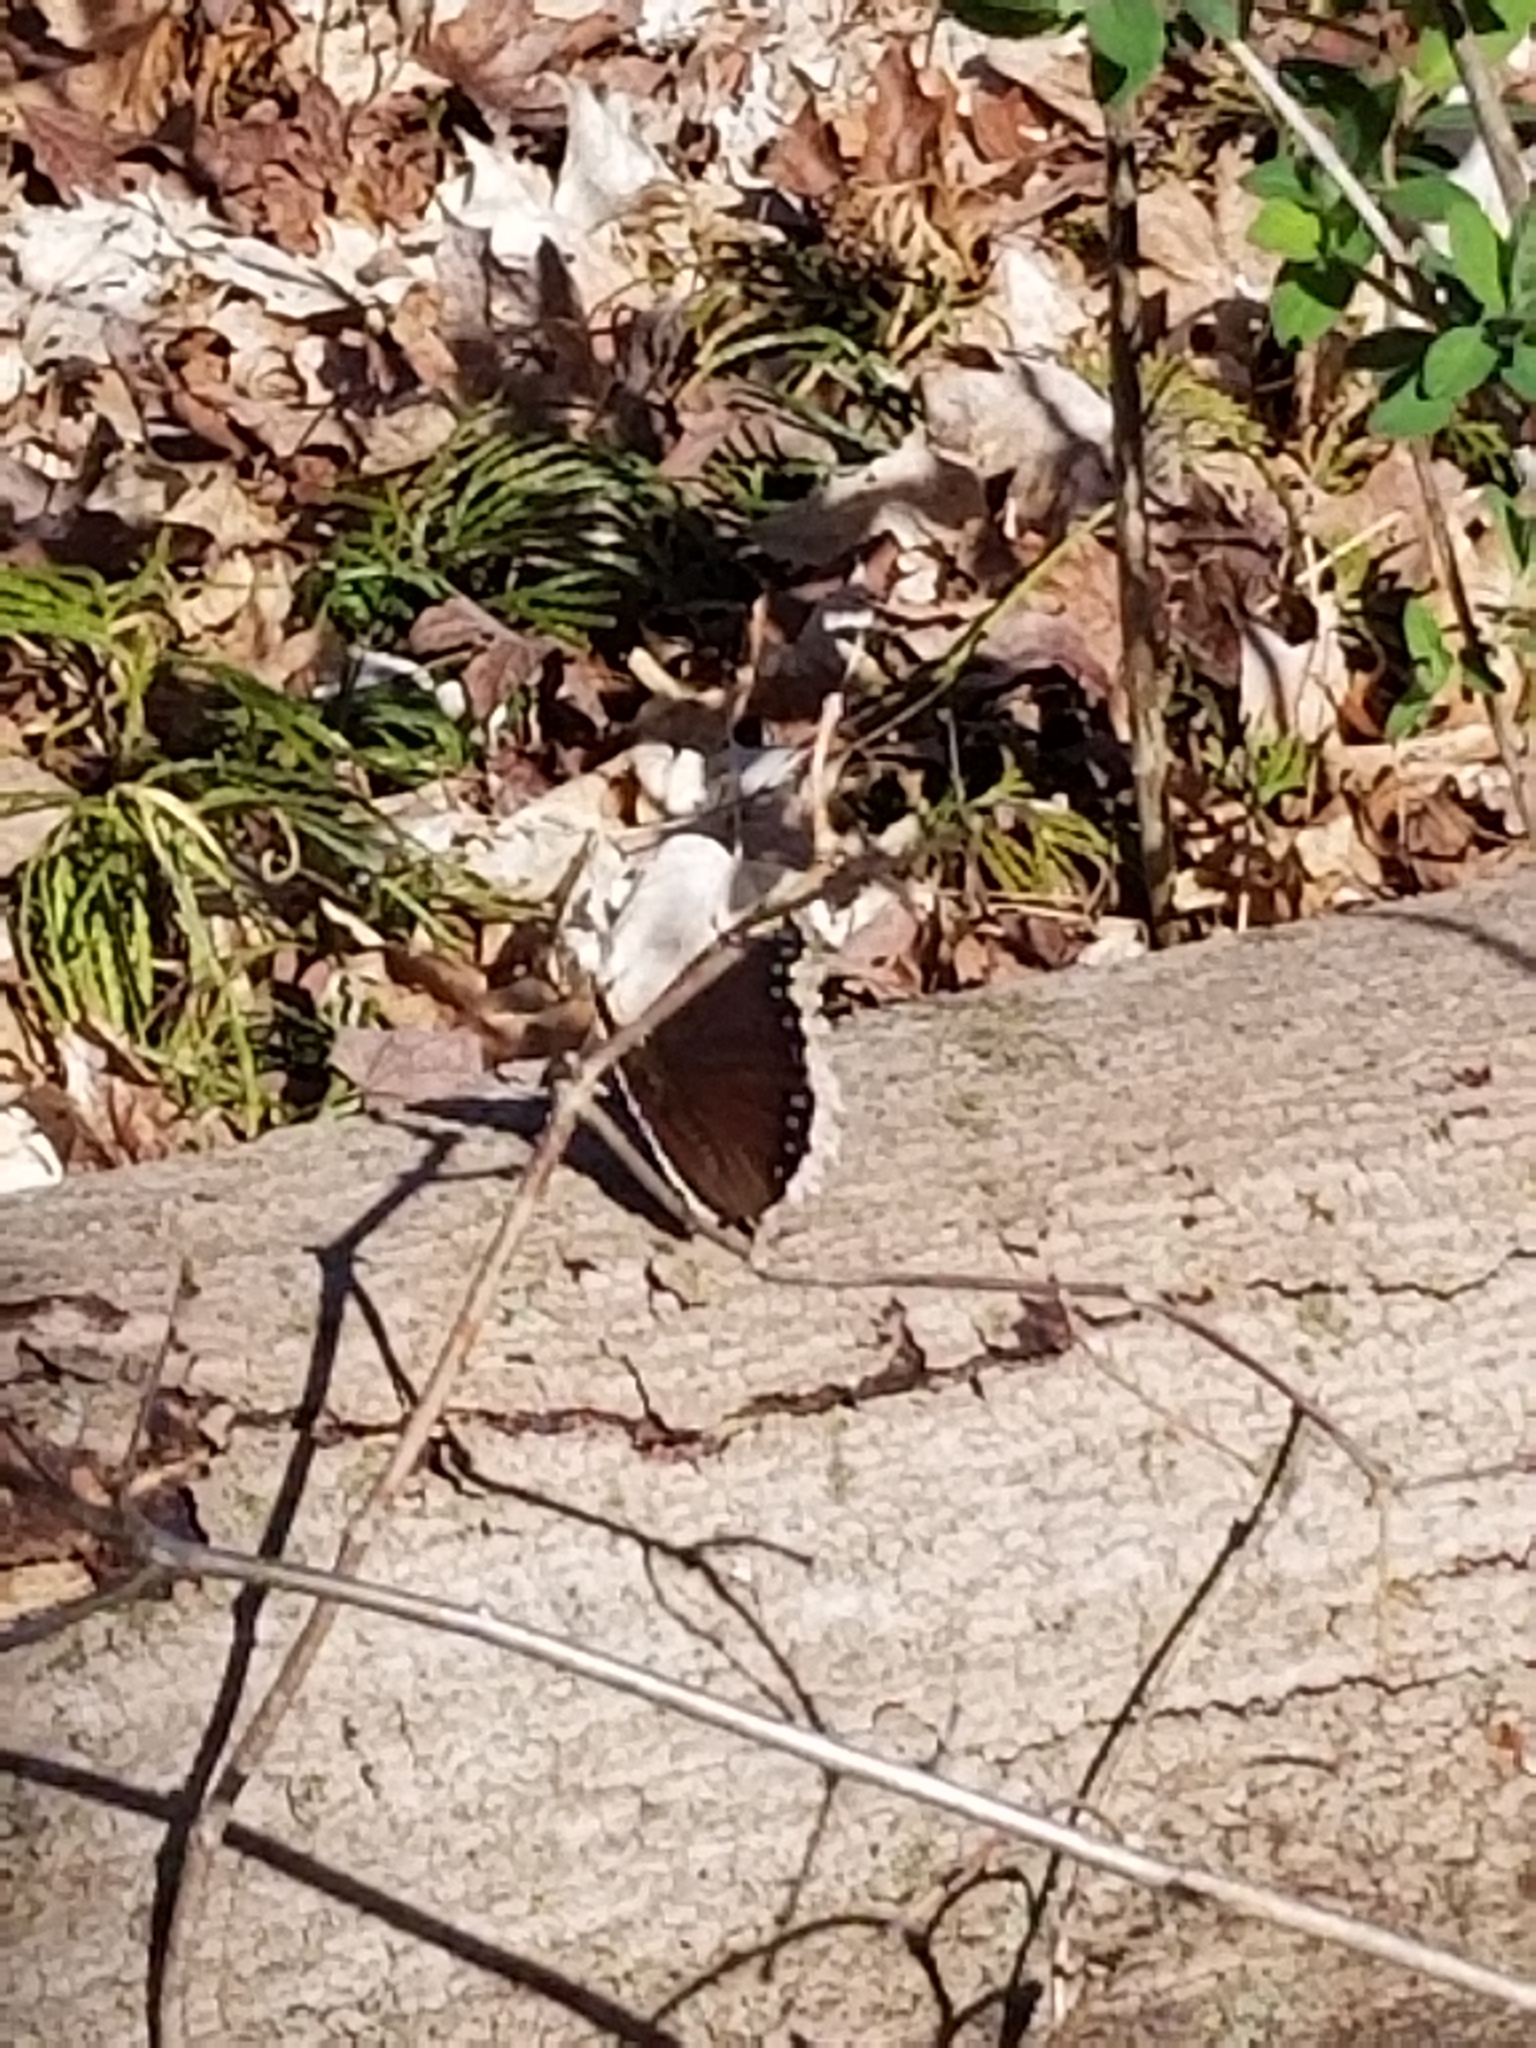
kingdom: Animalia
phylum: Arthropoda
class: Insecta
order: Lepidoptera
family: Nymphalidae
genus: Nymphalis
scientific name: Nymphalis antiopa
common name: Camberwell beauty
